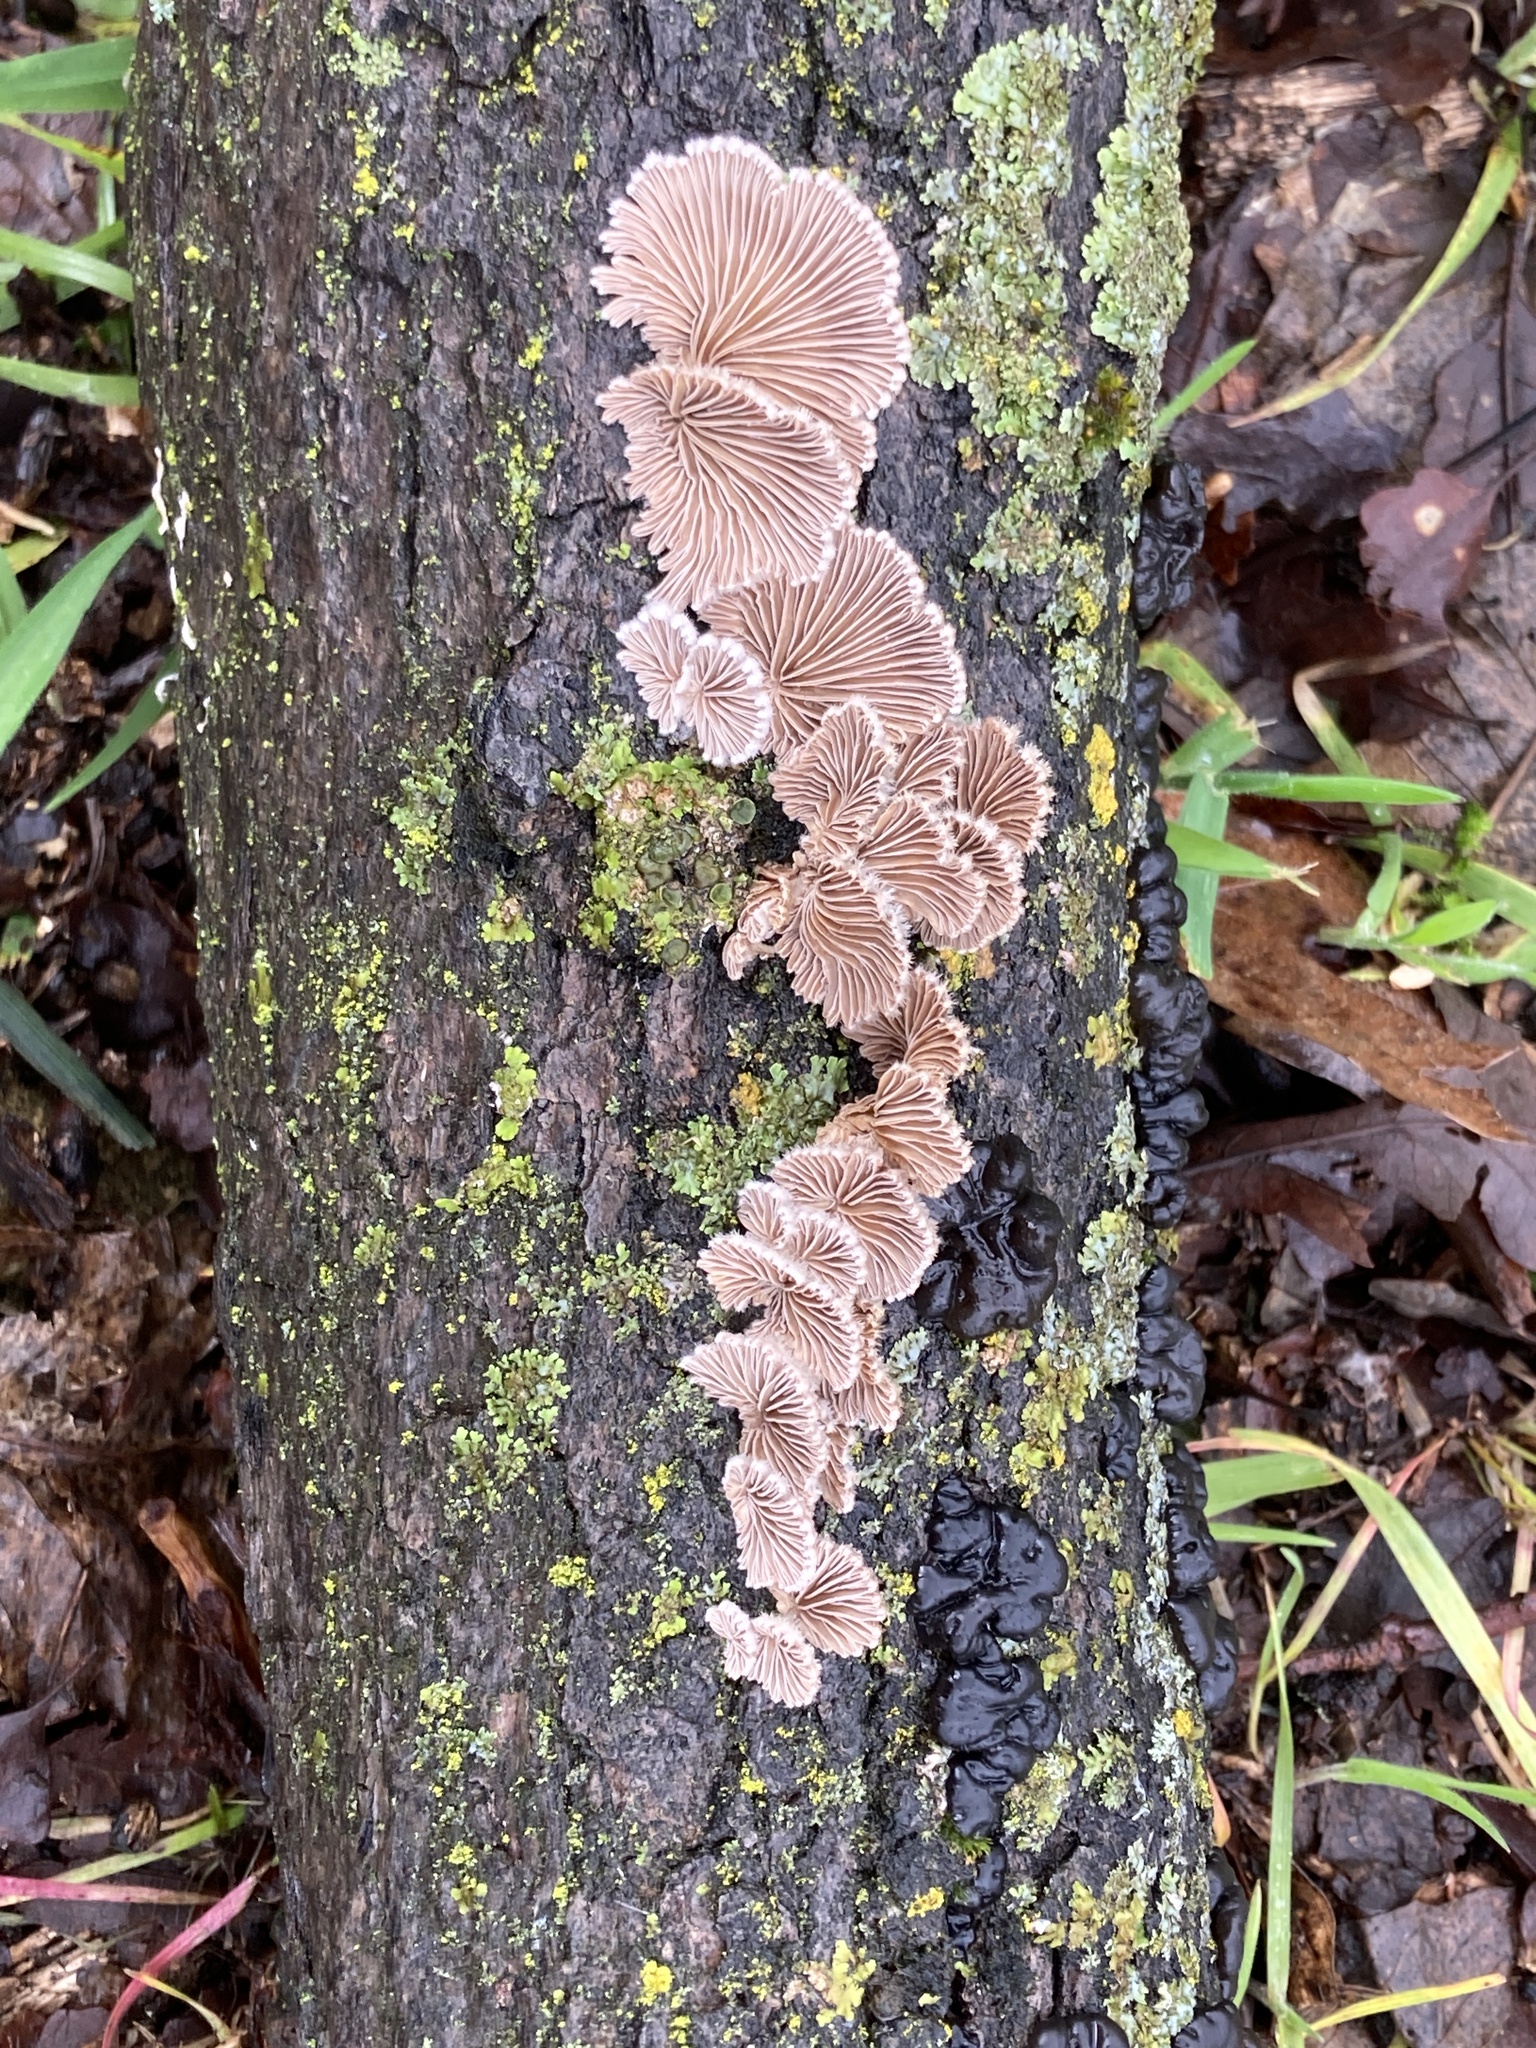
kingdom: Fungi
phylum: Basidiomycota
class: Agaricomycetes
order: Agaricales
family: Schizophyllaceae
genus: Schizophyllum
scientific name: Schizophyllum commune
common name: Common porecrust
